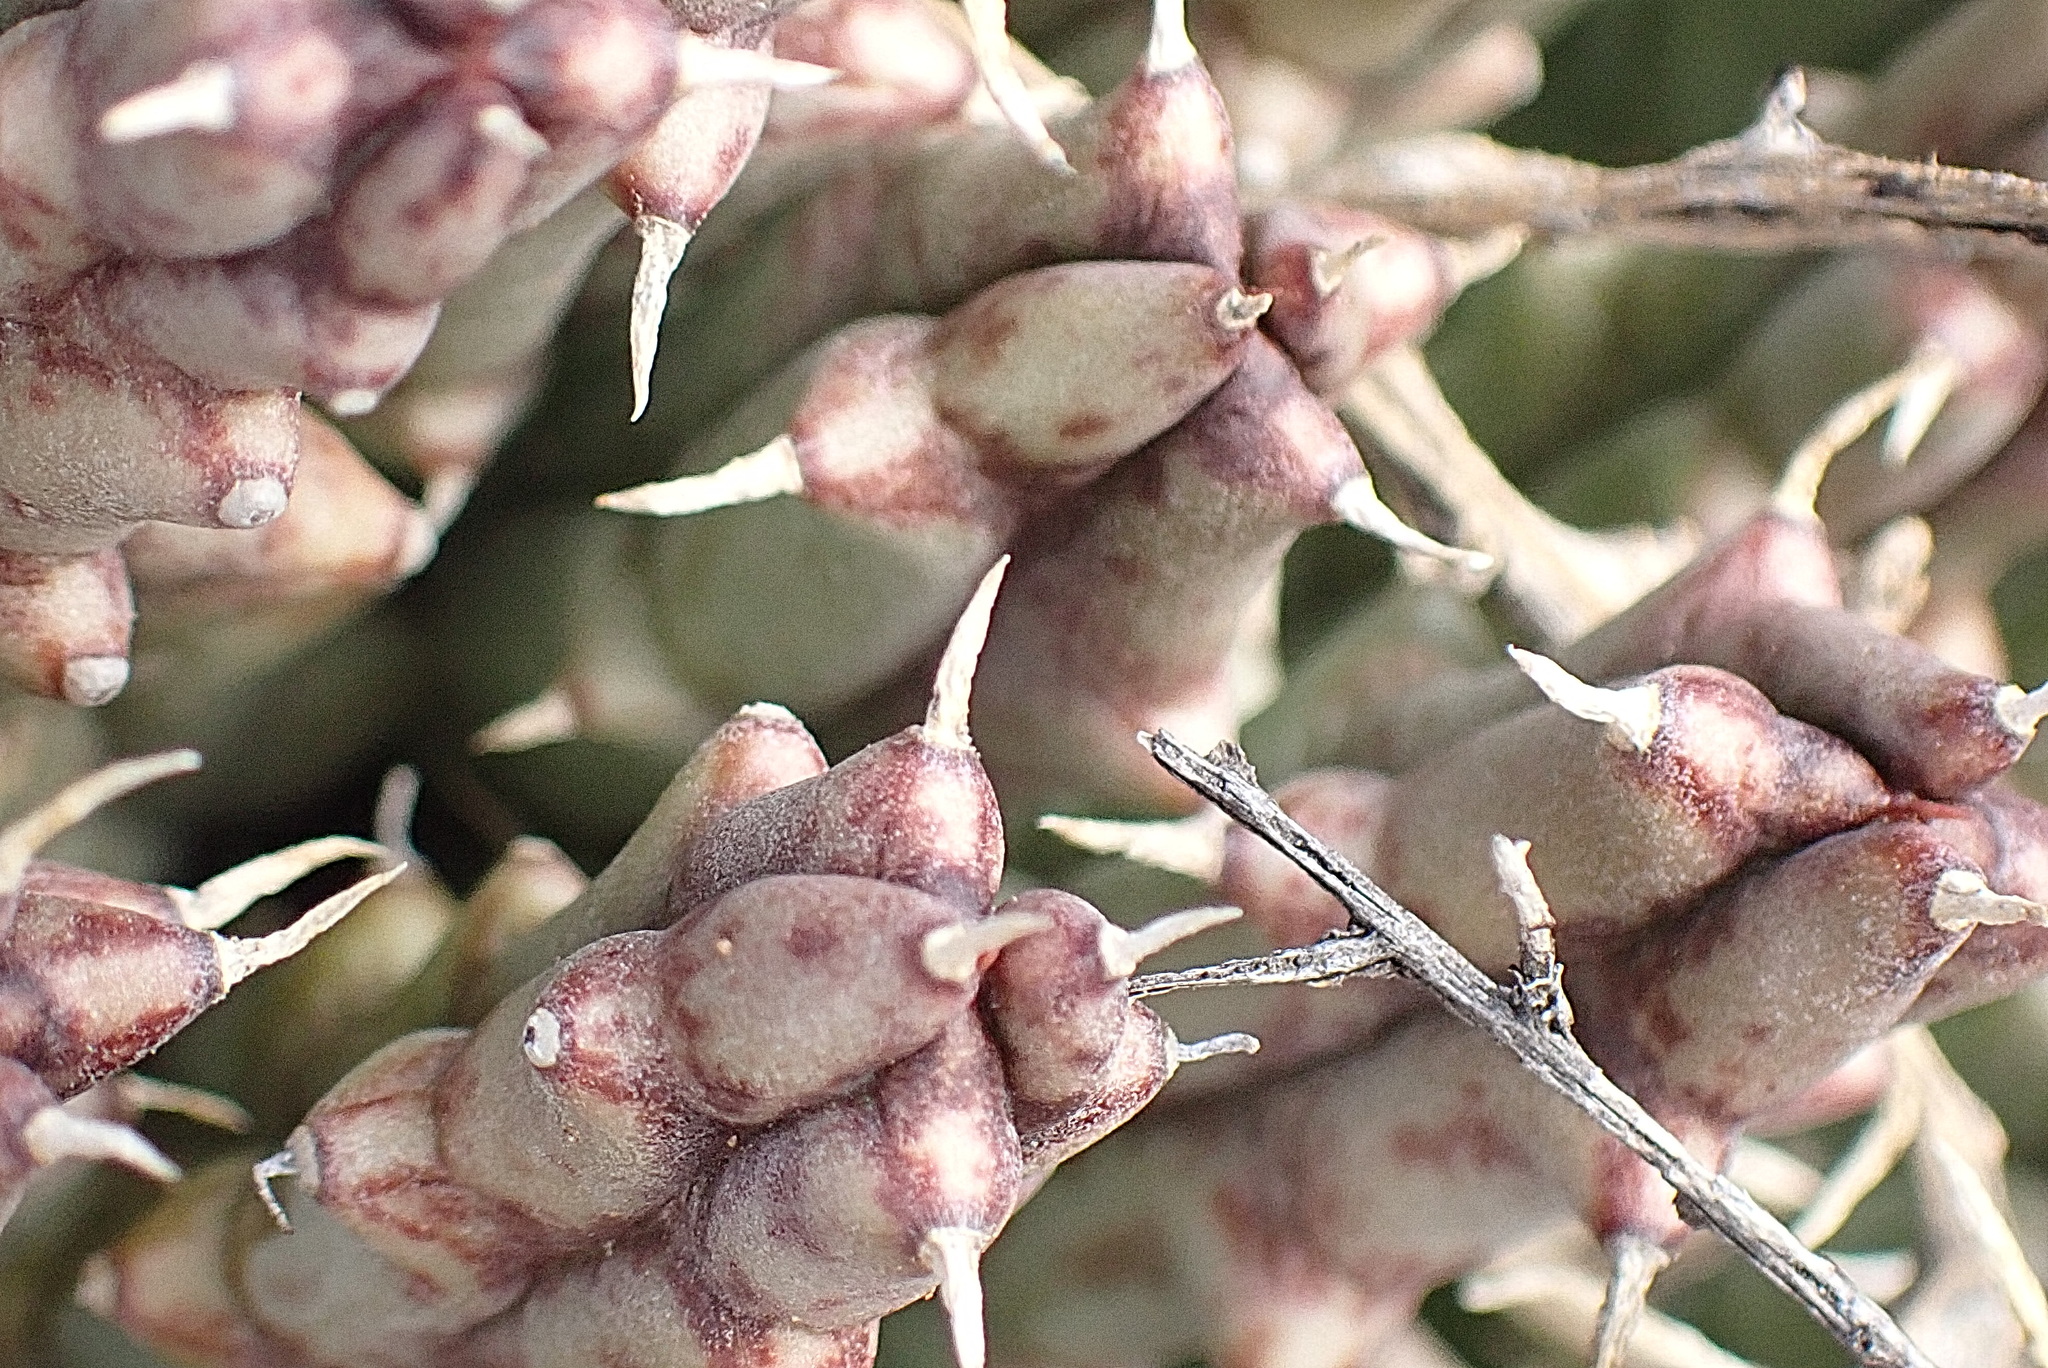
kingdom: Plantae
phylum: Tracheophyta
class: Magnoliopsida
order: Gentianales
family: Apocynaceae
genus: Ceropegia
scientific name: Ceropegia gemmiflora
